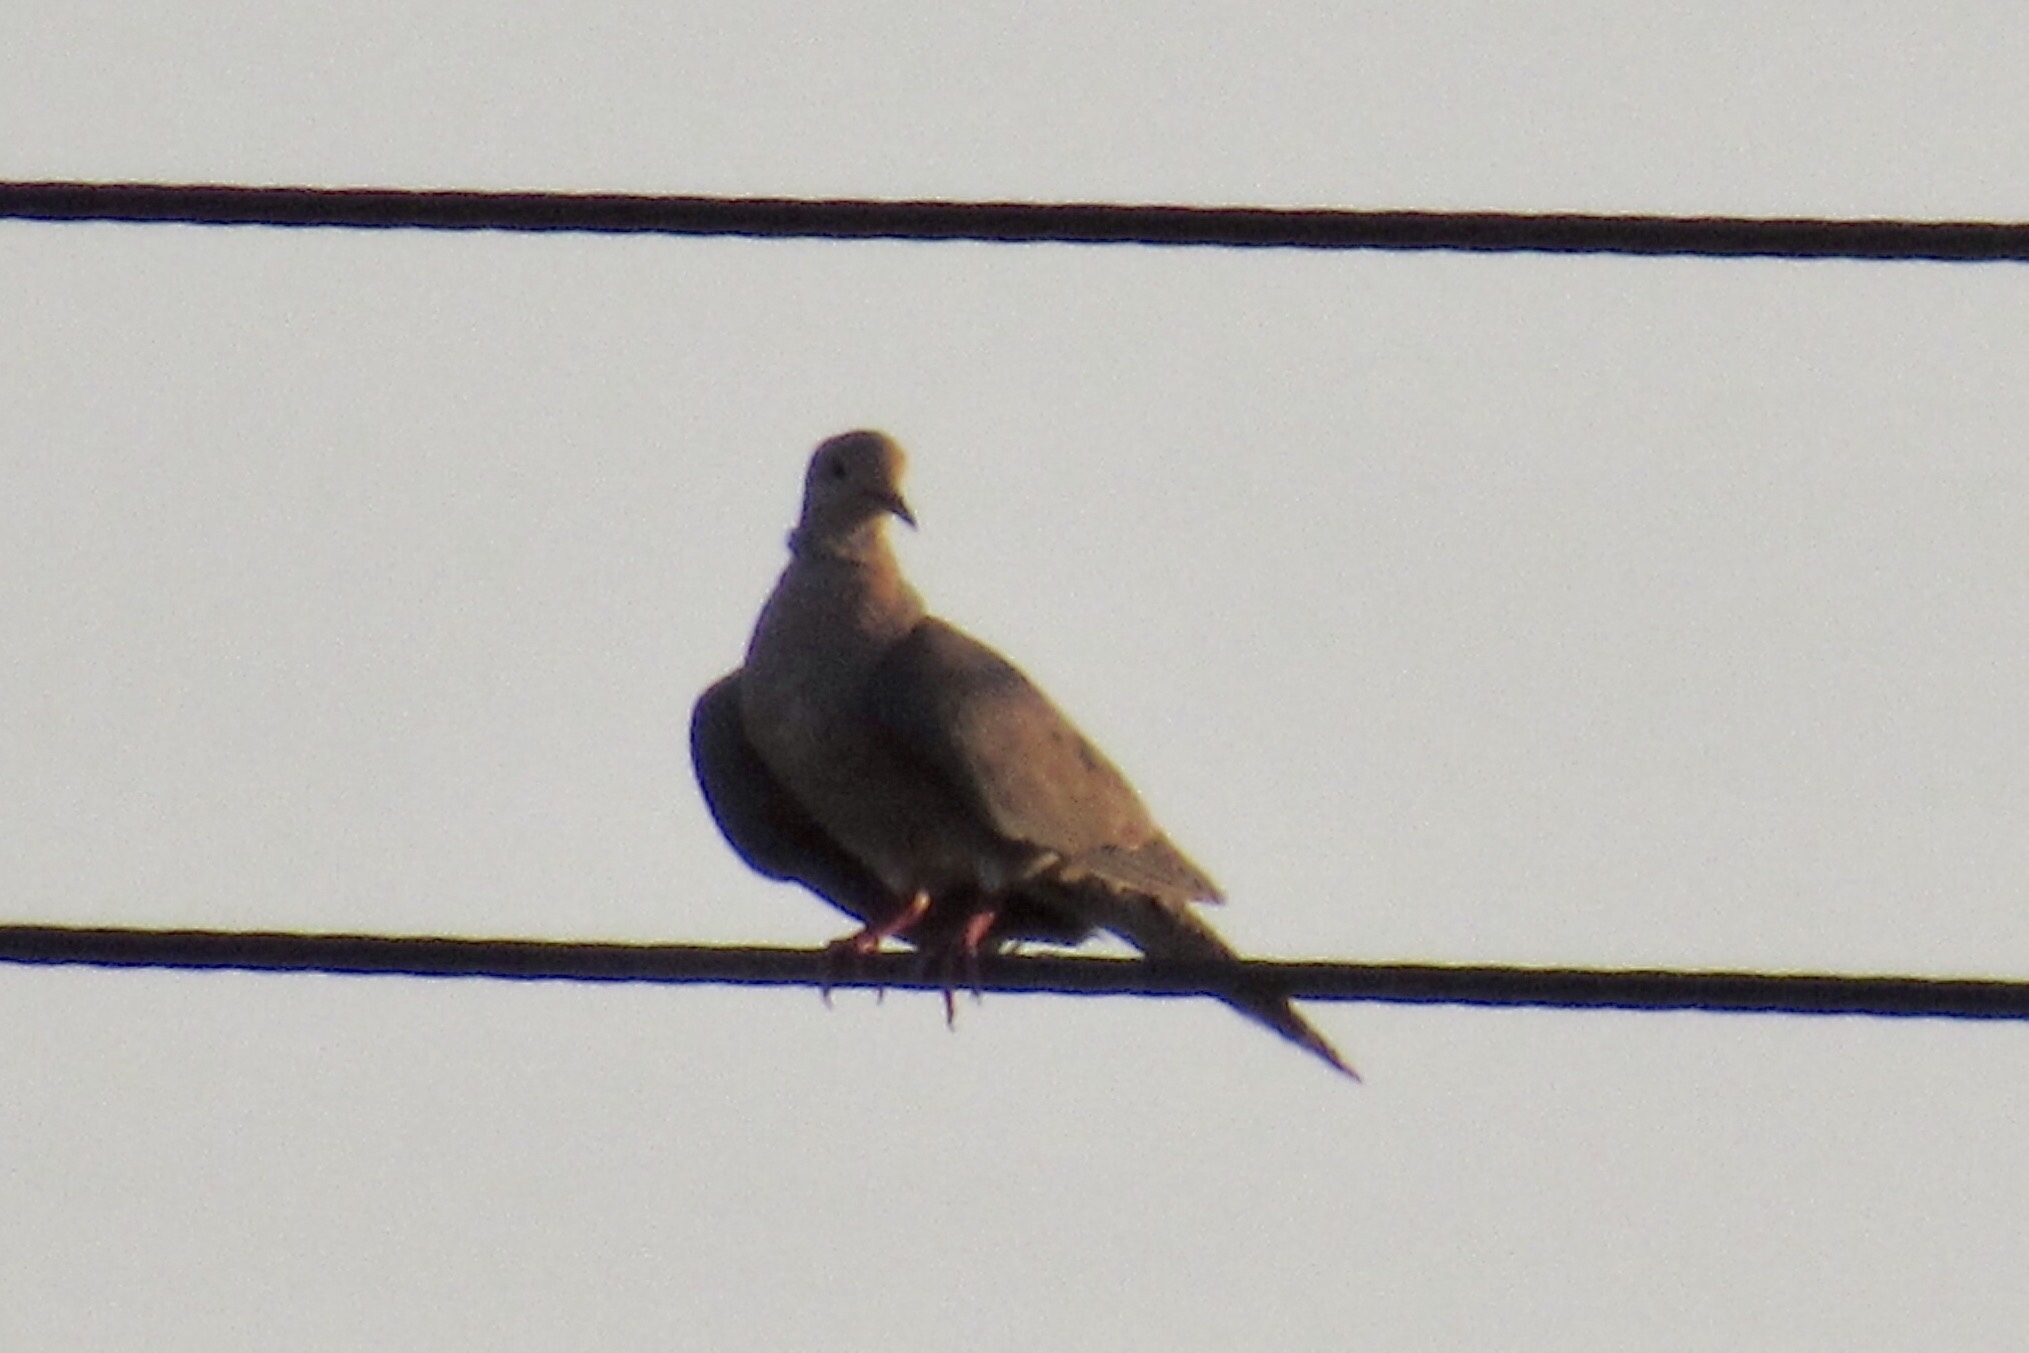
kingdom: Animalia
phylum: Chordata
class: Aves
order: Columbiformes
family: Columbidae
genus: Zenaida
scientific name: Zenaida macroura
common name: Mourning dove
